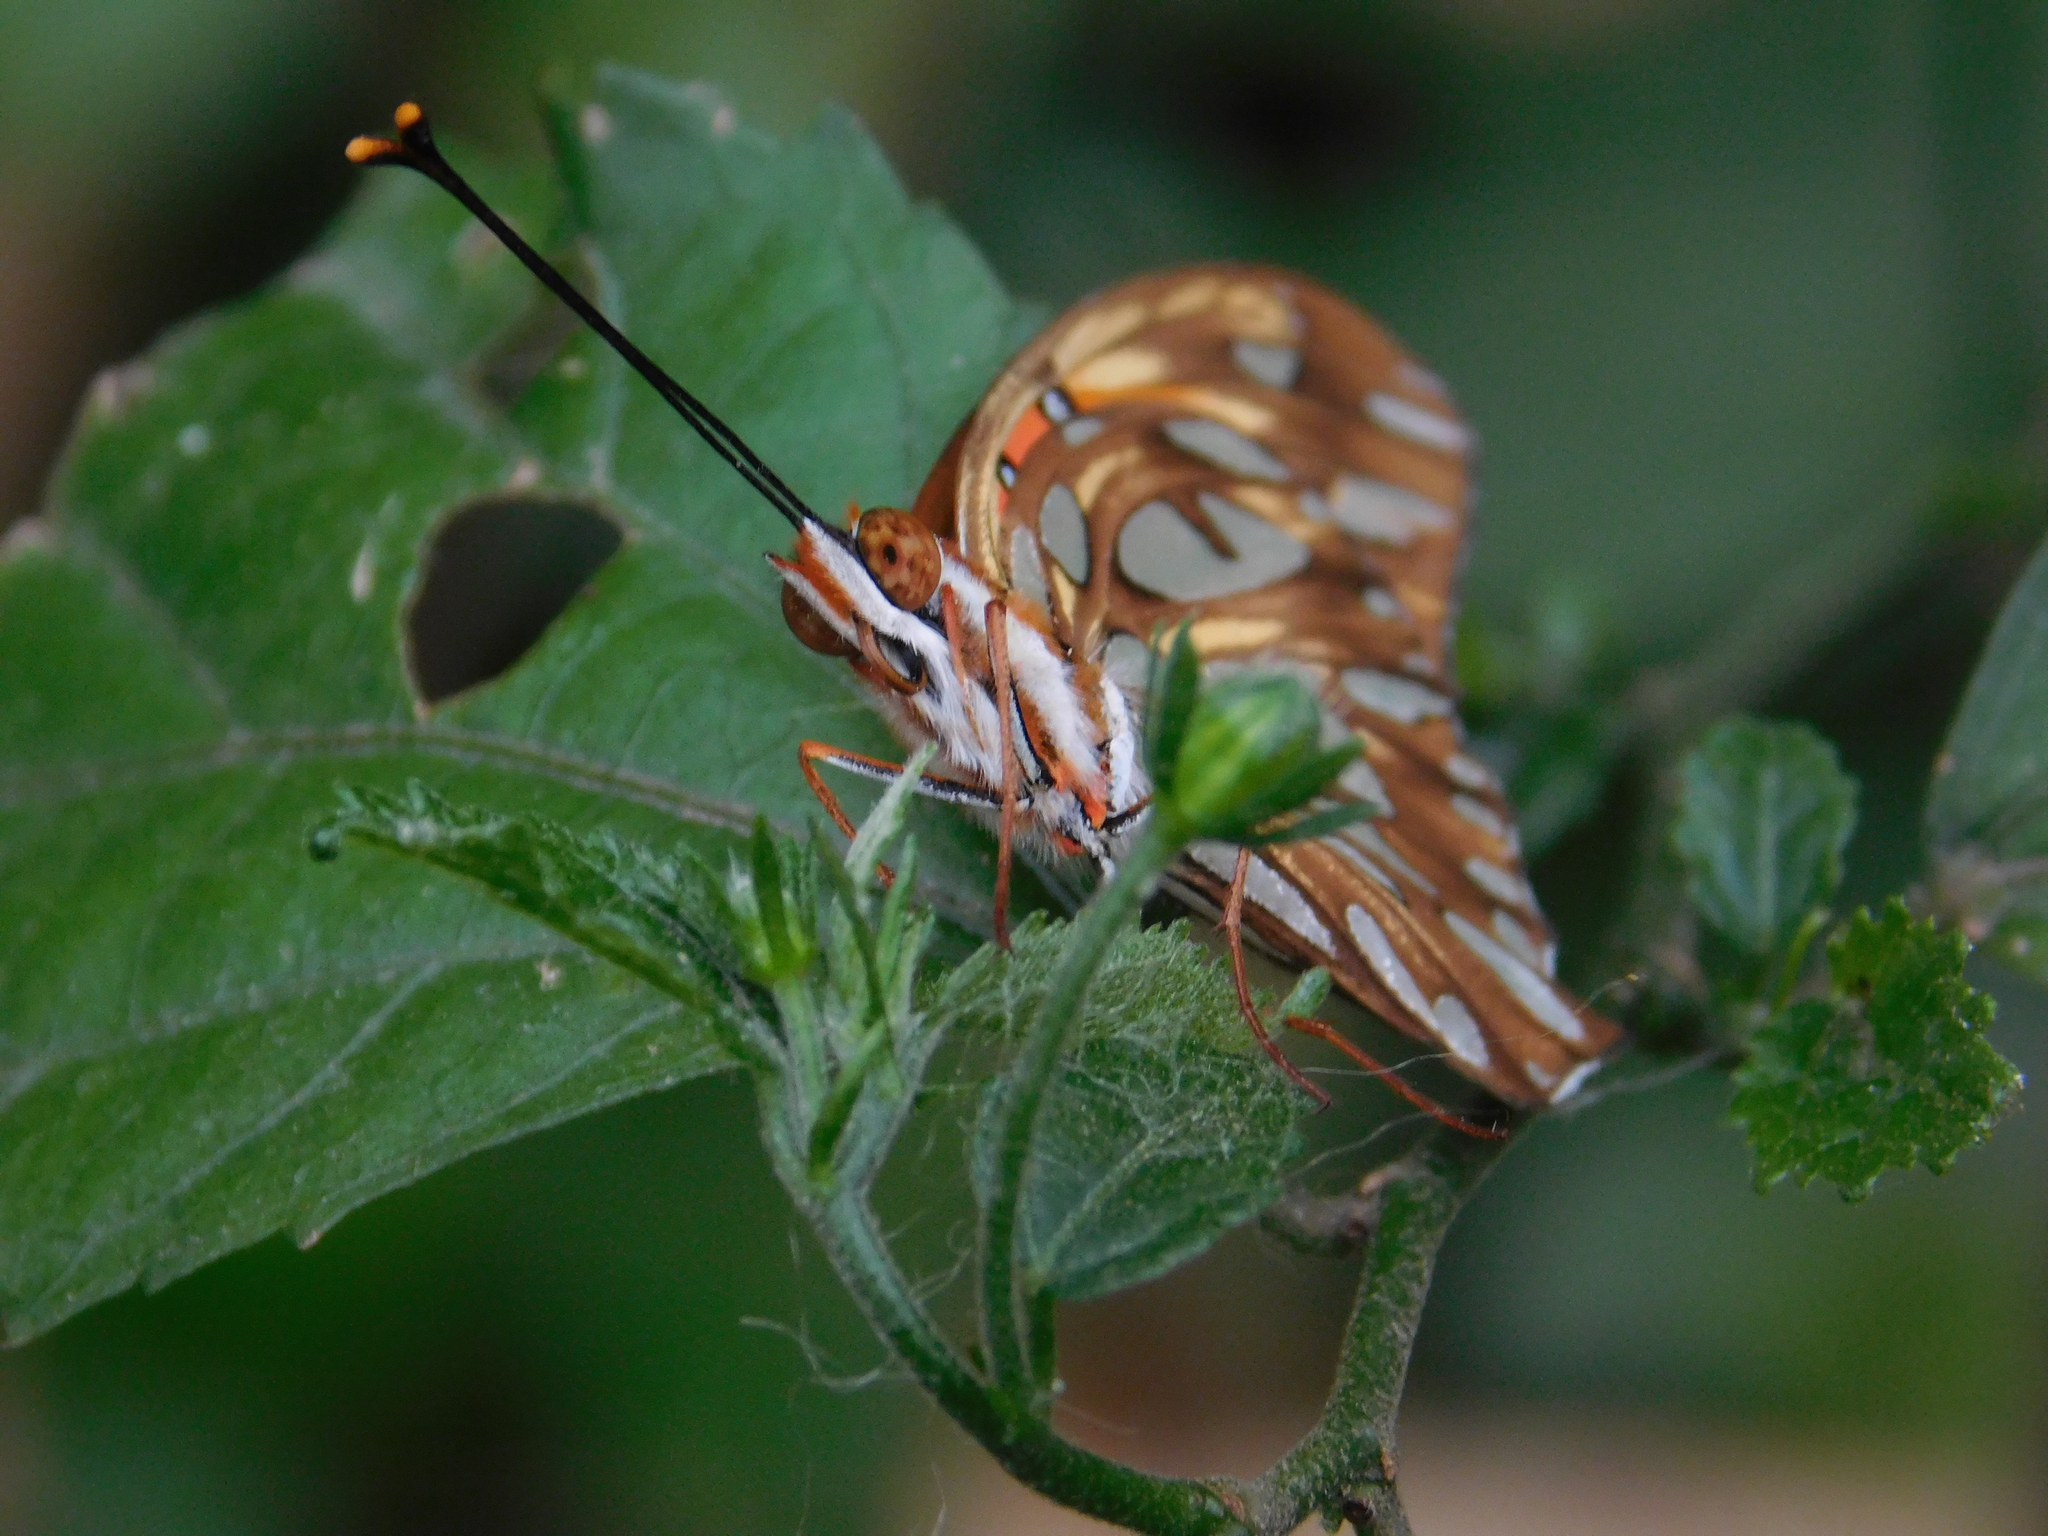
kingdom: Animalia
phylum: Arthropoda
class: Insecta
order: Lepidoptera
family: Nymphalidae
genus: Dione
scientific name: Dione vanillae
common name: Gulf fritillary
